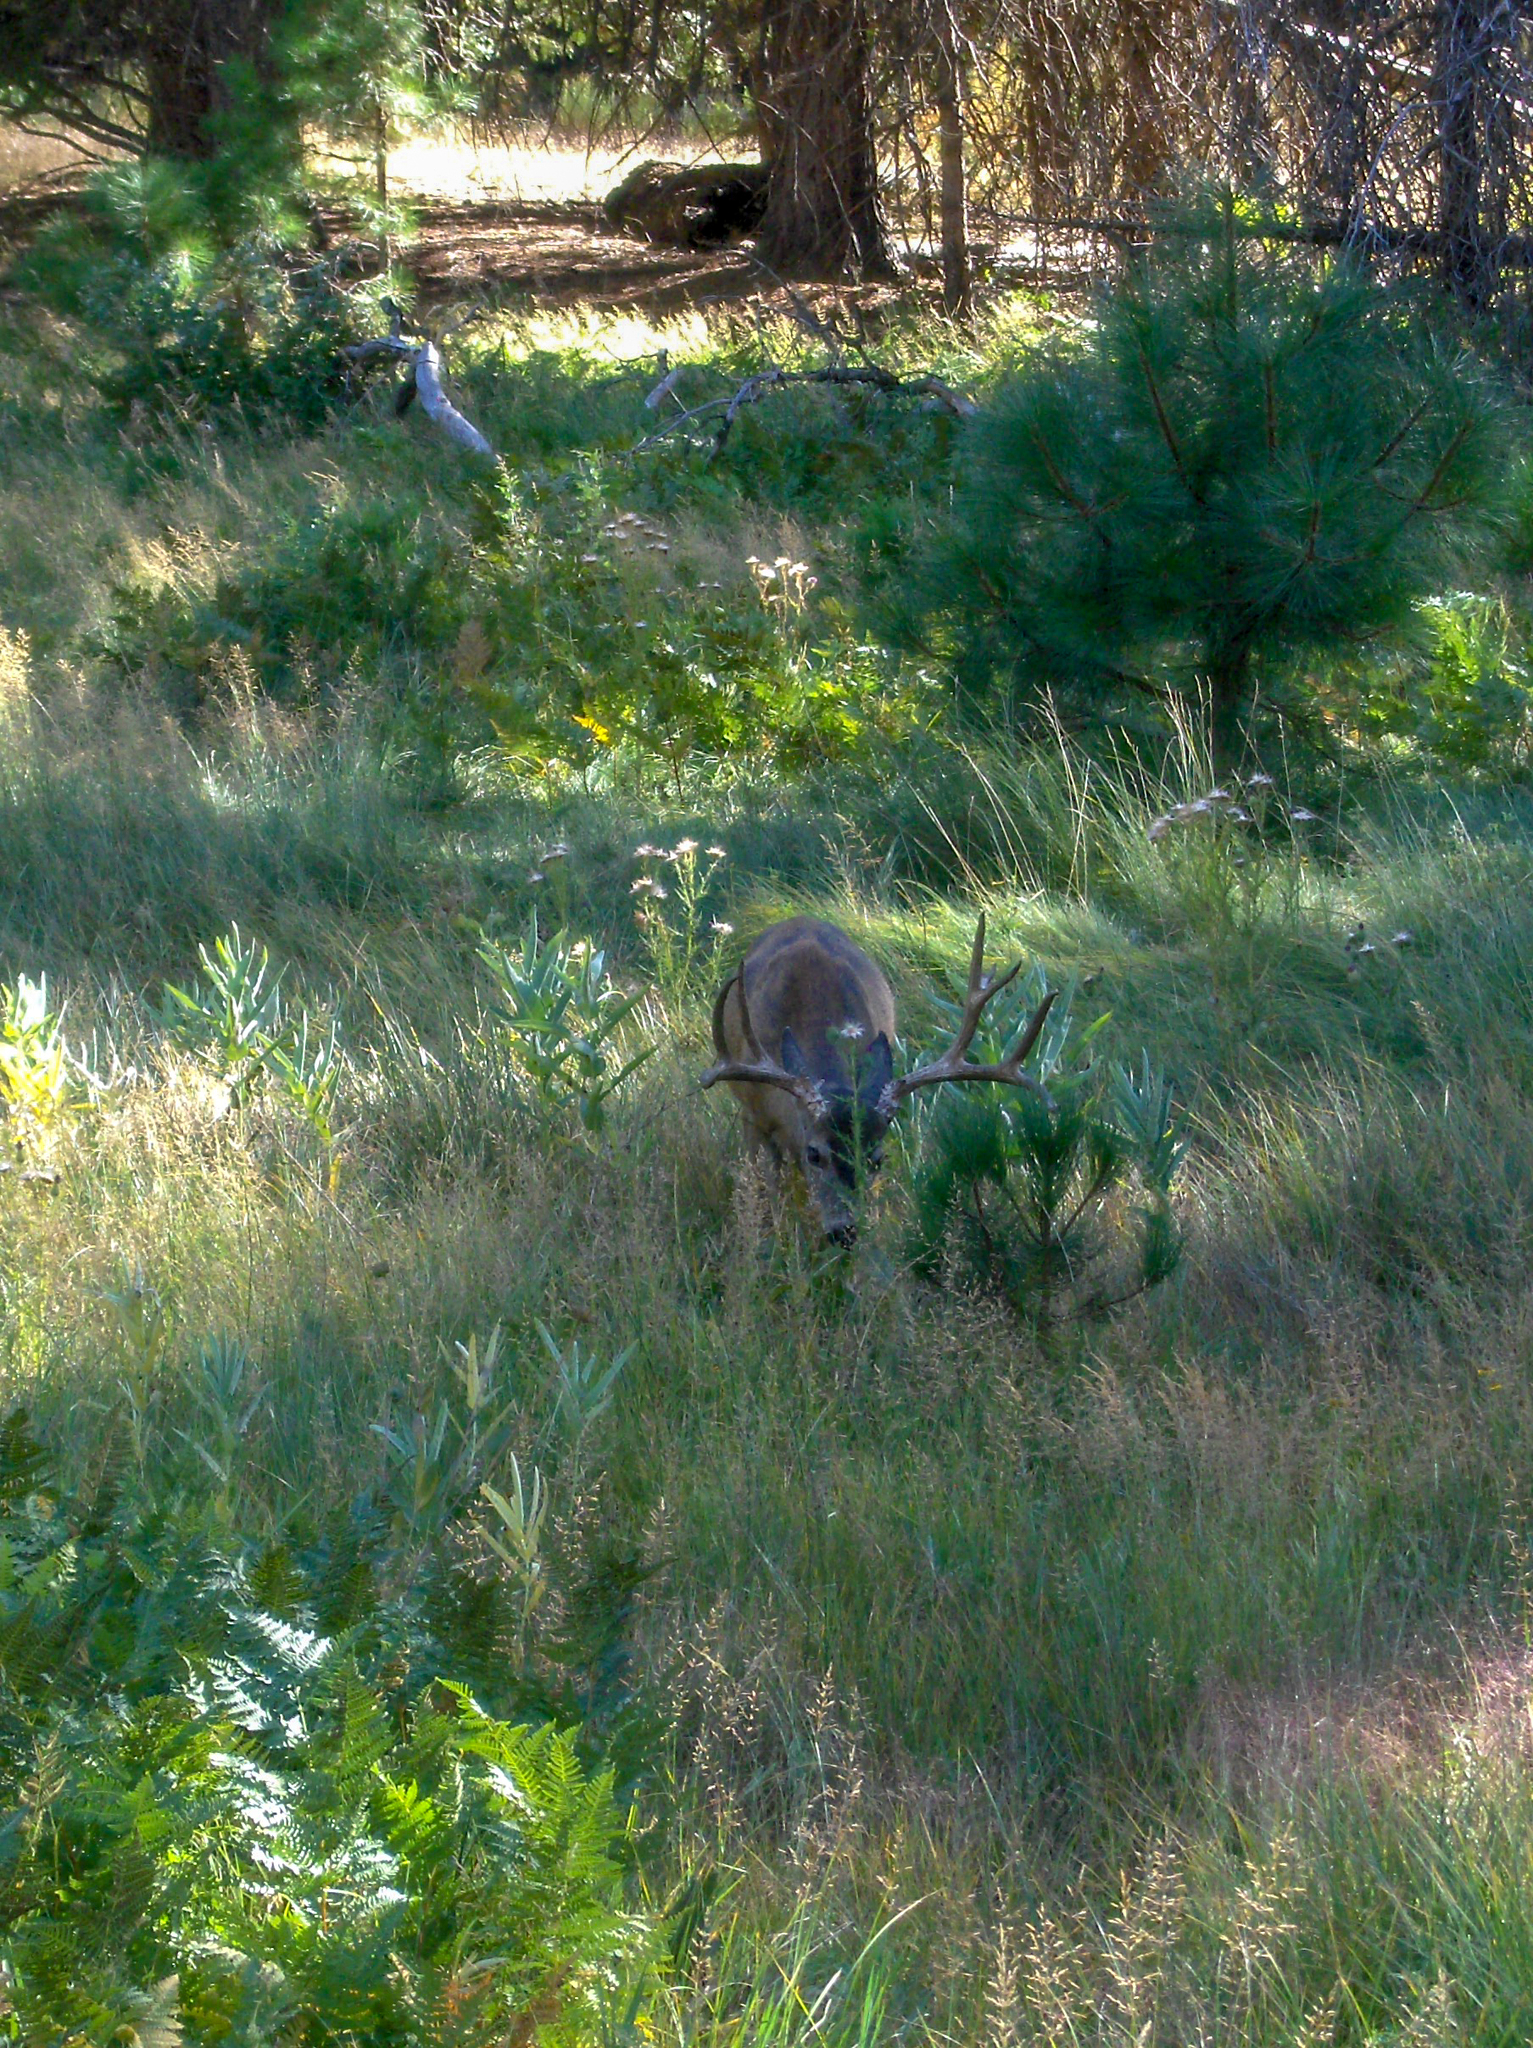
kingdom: Animalia
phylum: Chordata
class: Mammalia
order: Artiodactyla
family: Cervidae
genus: Odocoileus
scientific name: Odocoileus hemionus
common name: Mule deer
